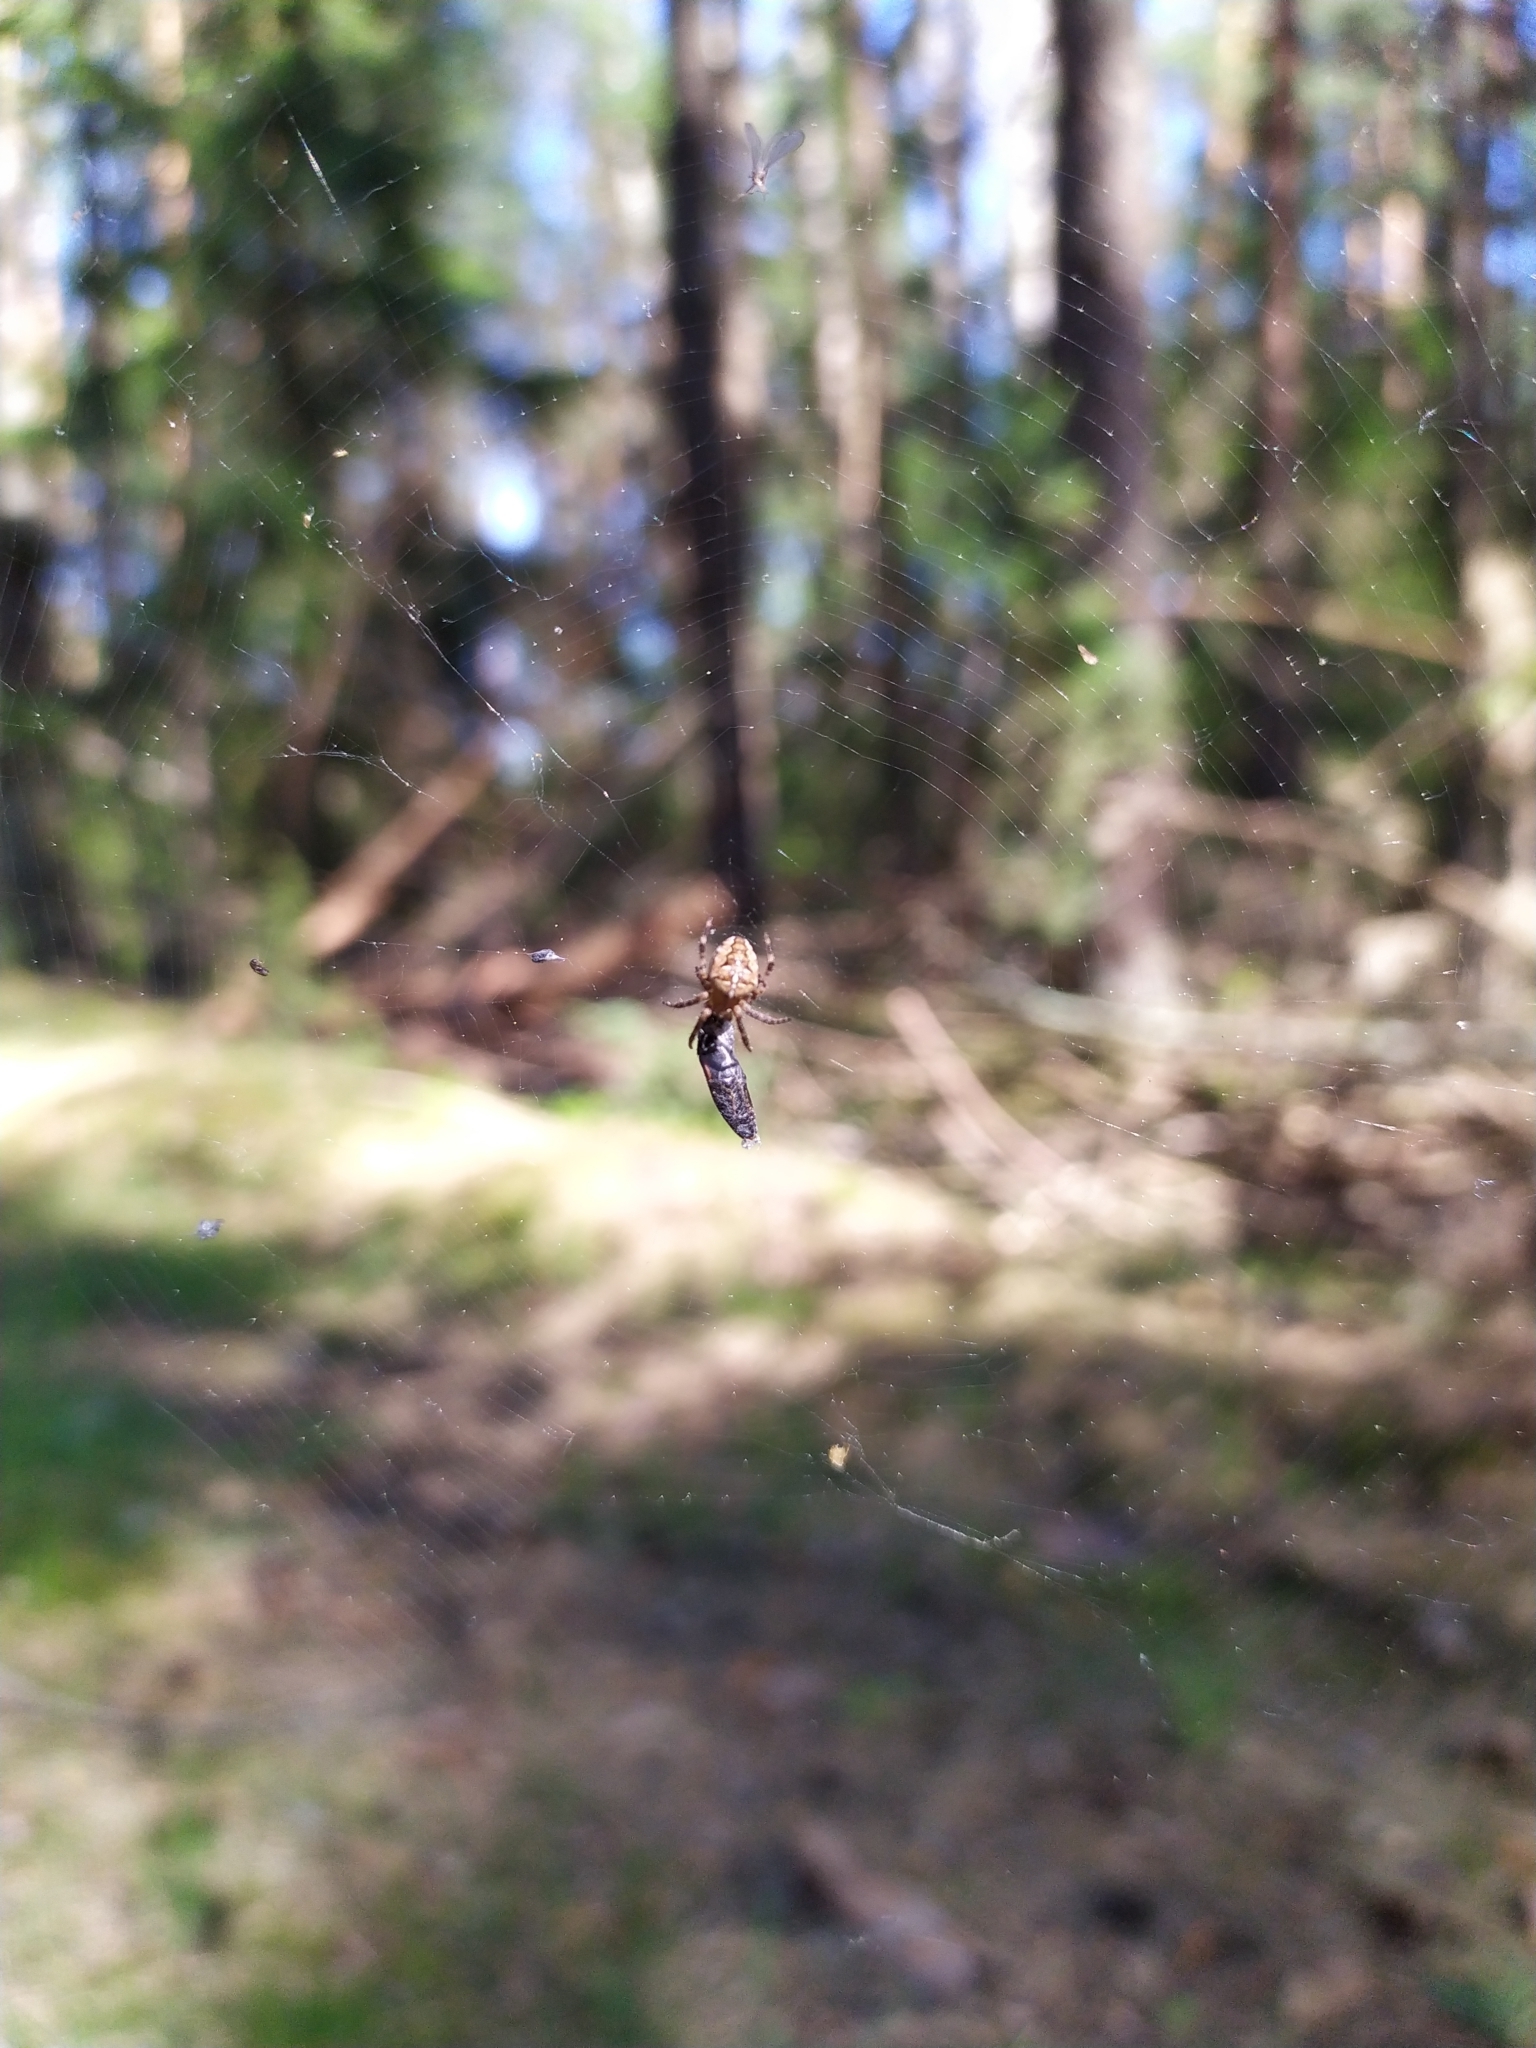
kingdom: Animalia
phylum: Arthropoda
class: Arachnida
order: Araneae
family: Araneidae
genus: Araneus
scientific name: Araneus diadematus
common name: Cross orbweaver
